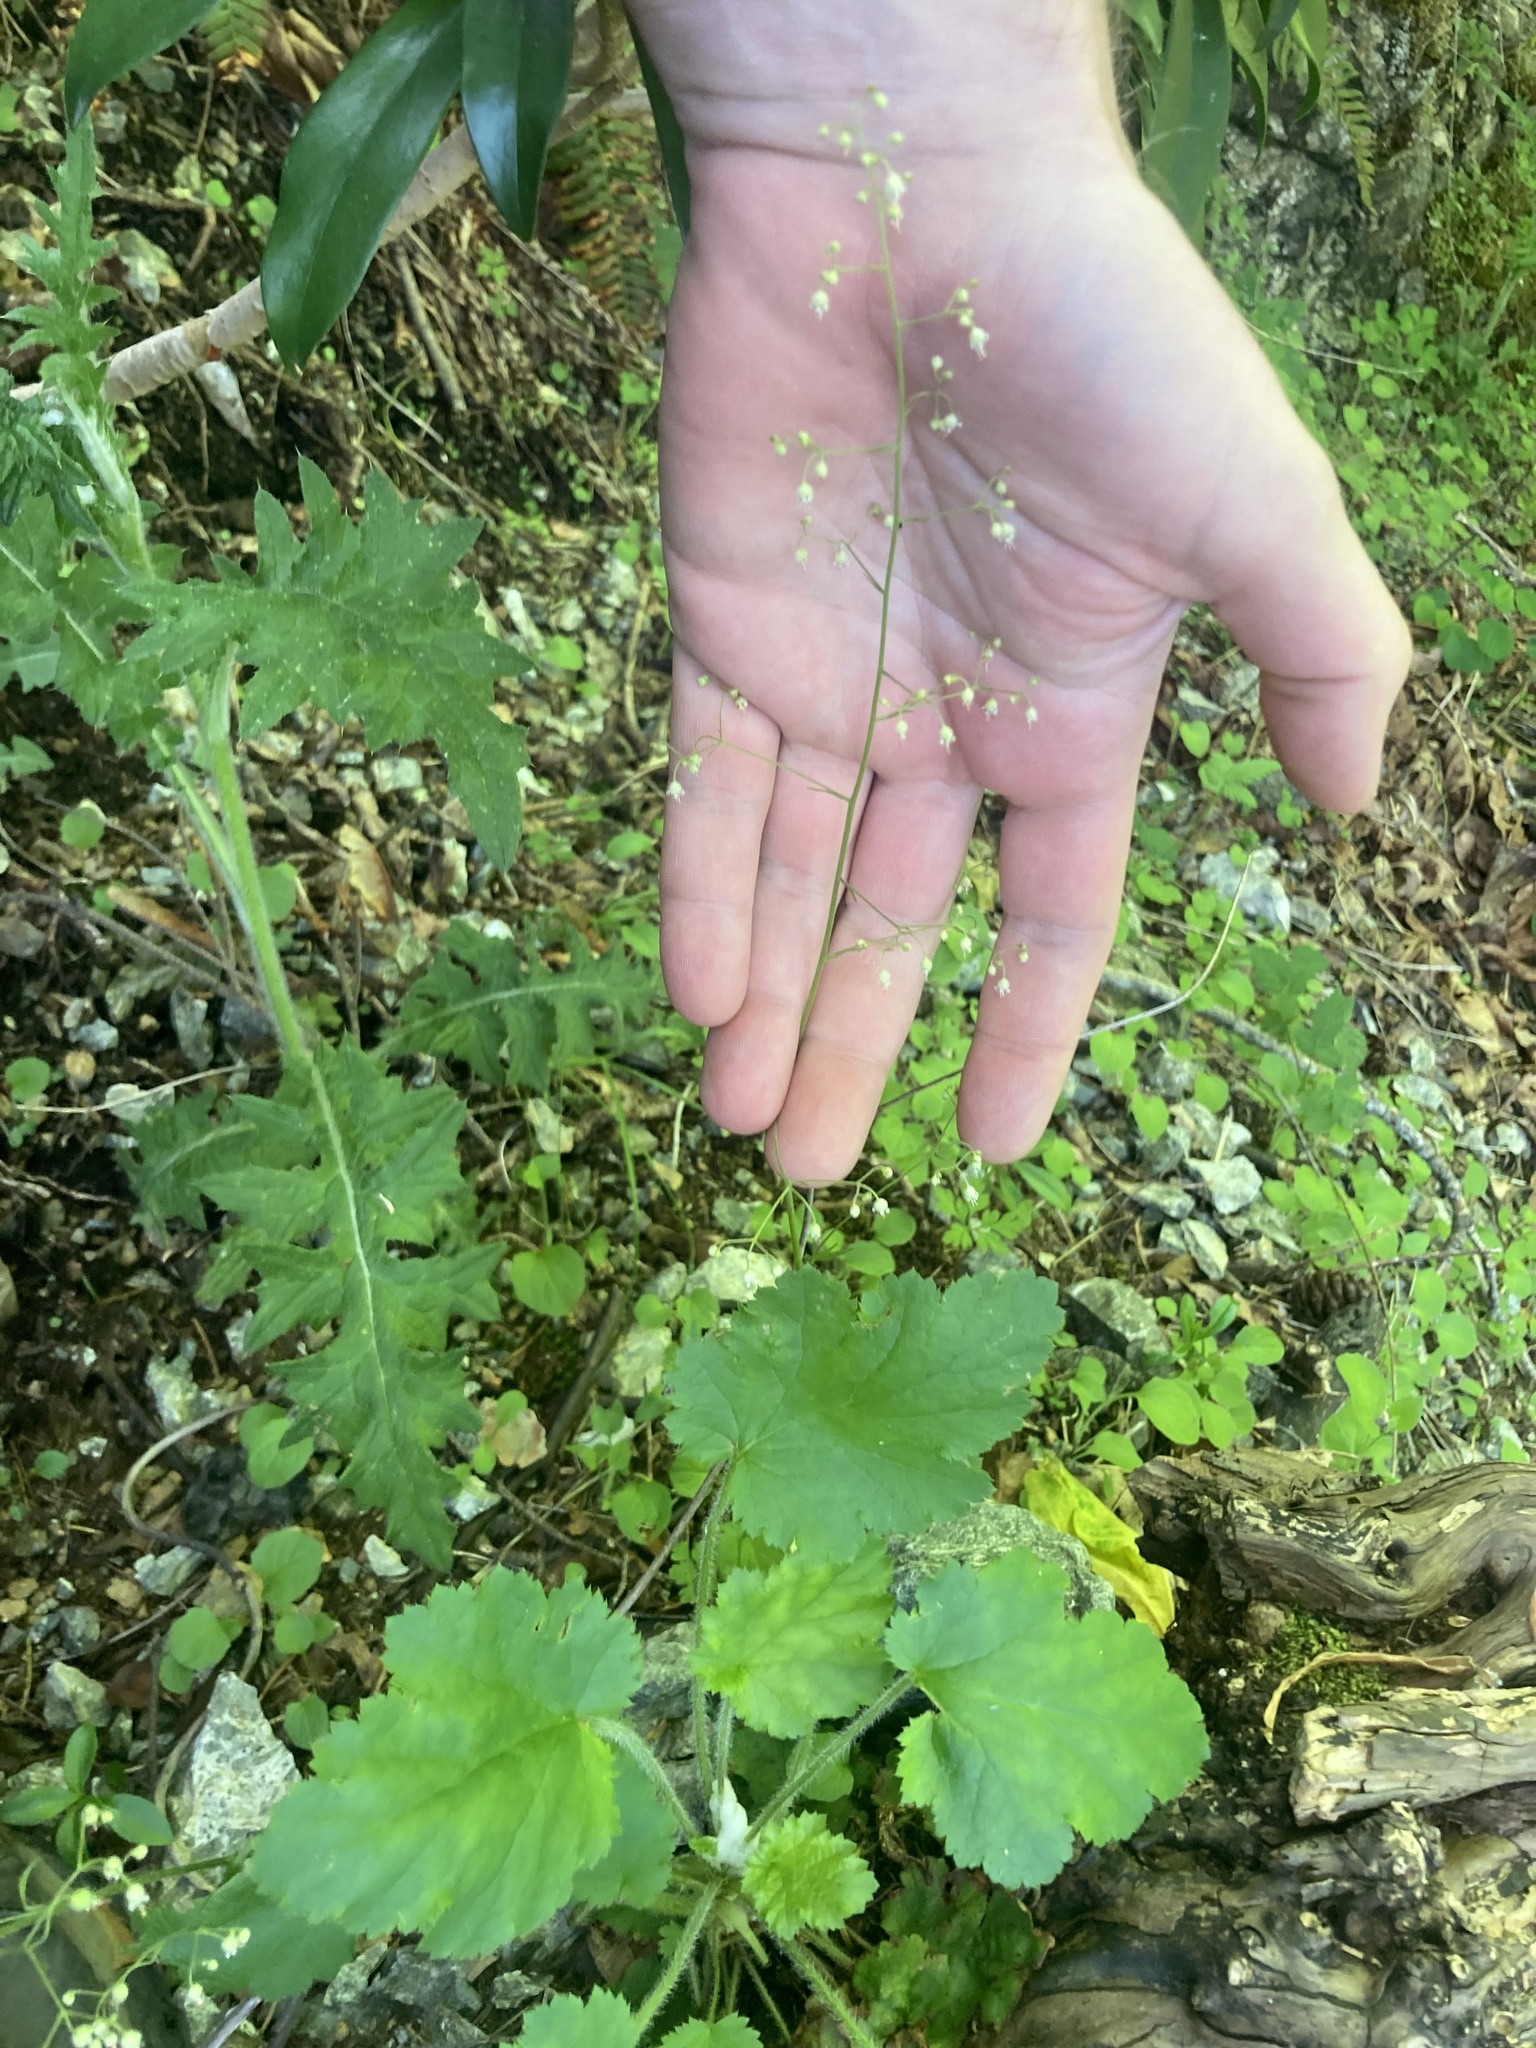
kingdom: Plantae
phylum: Tracheophyta
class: Magnoliopsida
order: Saxifragales
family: Saxifragaceae
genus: Heuchera
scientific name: Heuchera micrantha
